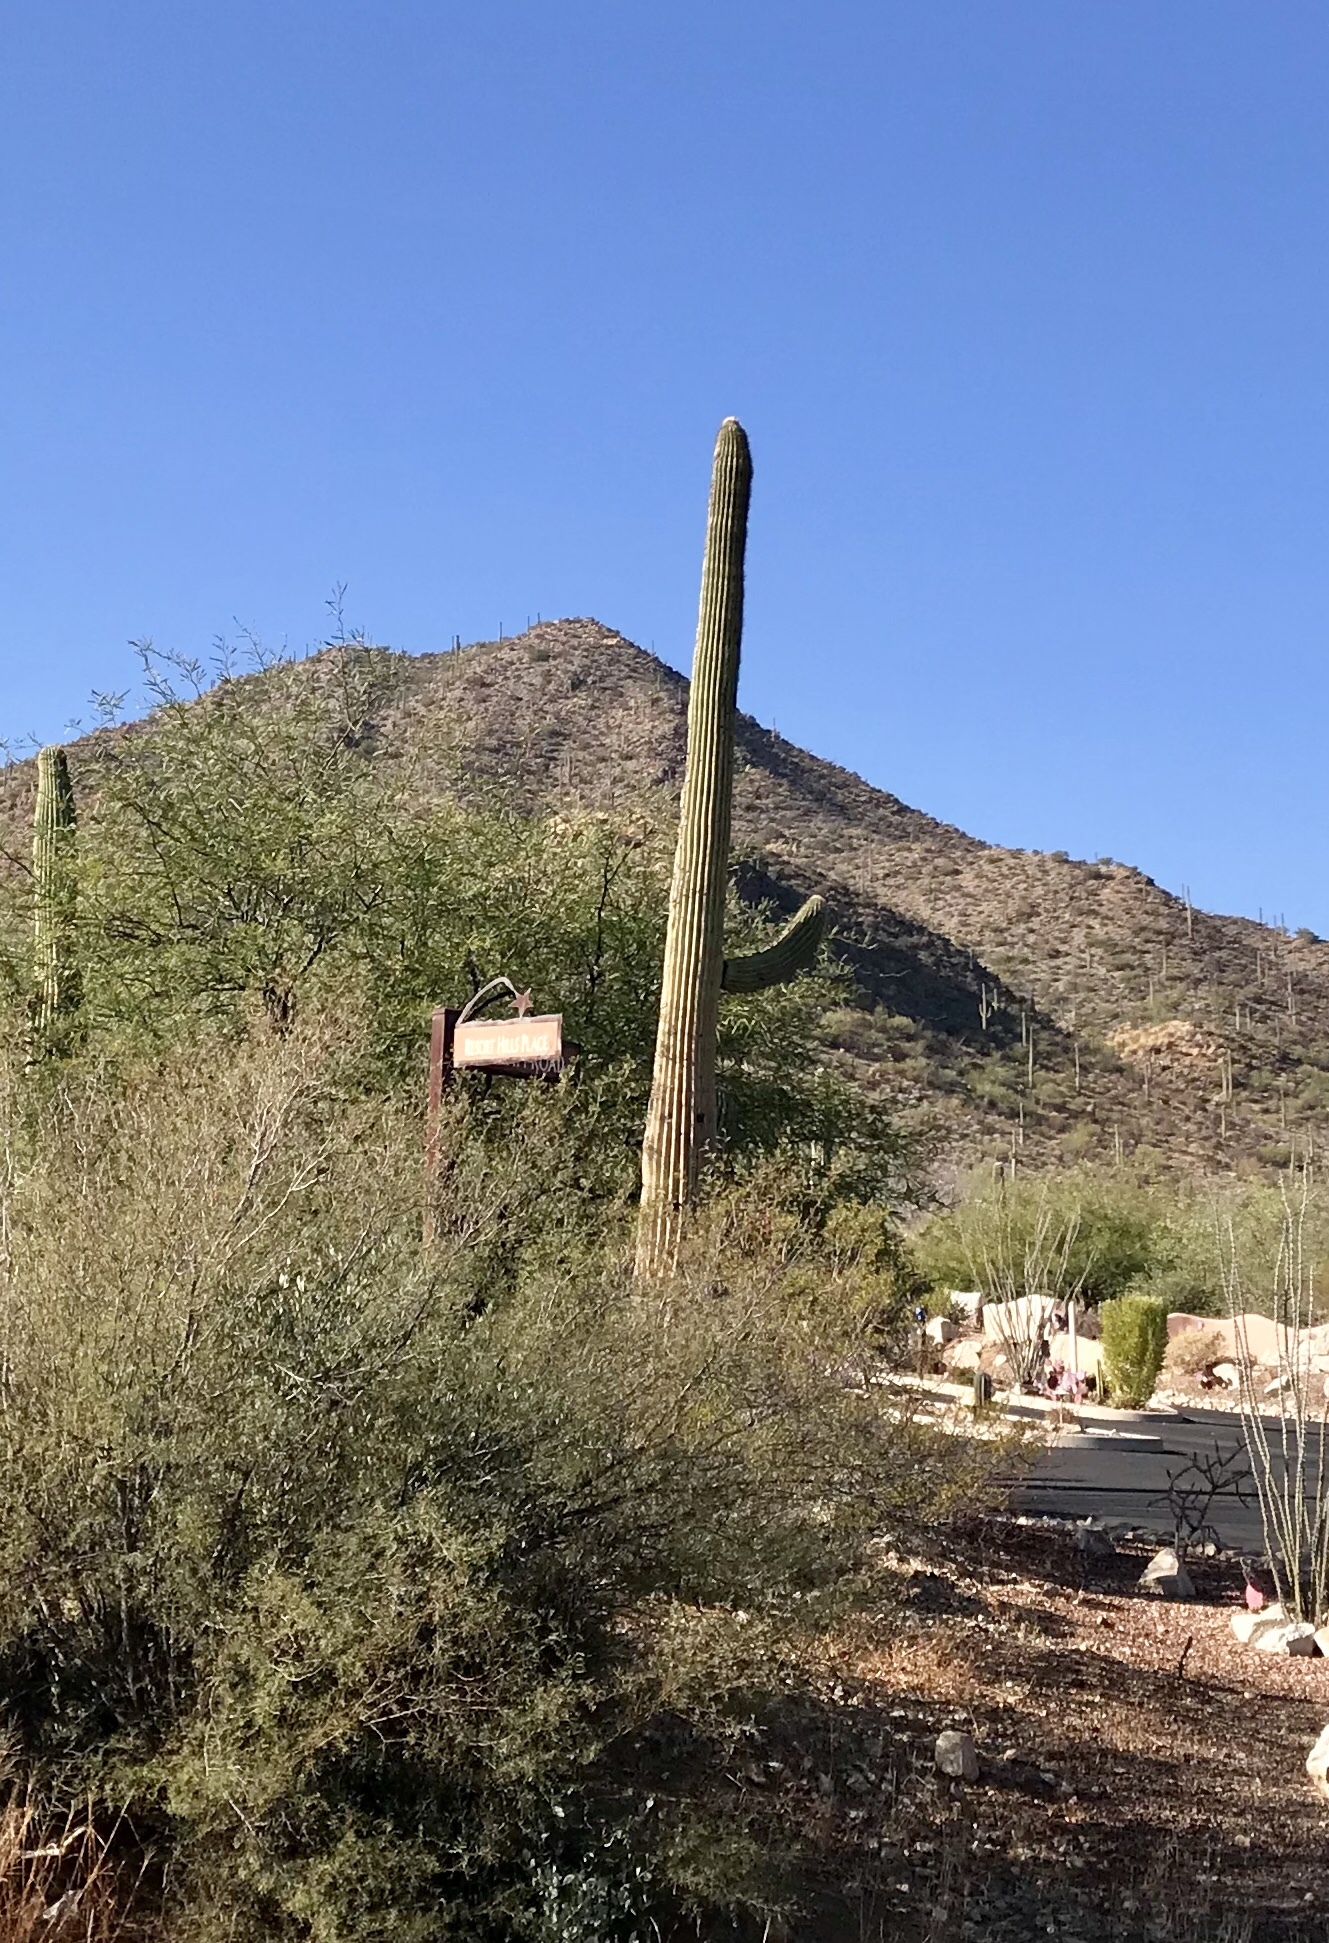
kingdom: Plantae
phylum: Tracheophyta
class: Magnoliopsida
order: Caryophyllales
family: Cactaceae
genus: Carnegiea
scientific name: Carnegiea gigantea
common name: Saguaro
